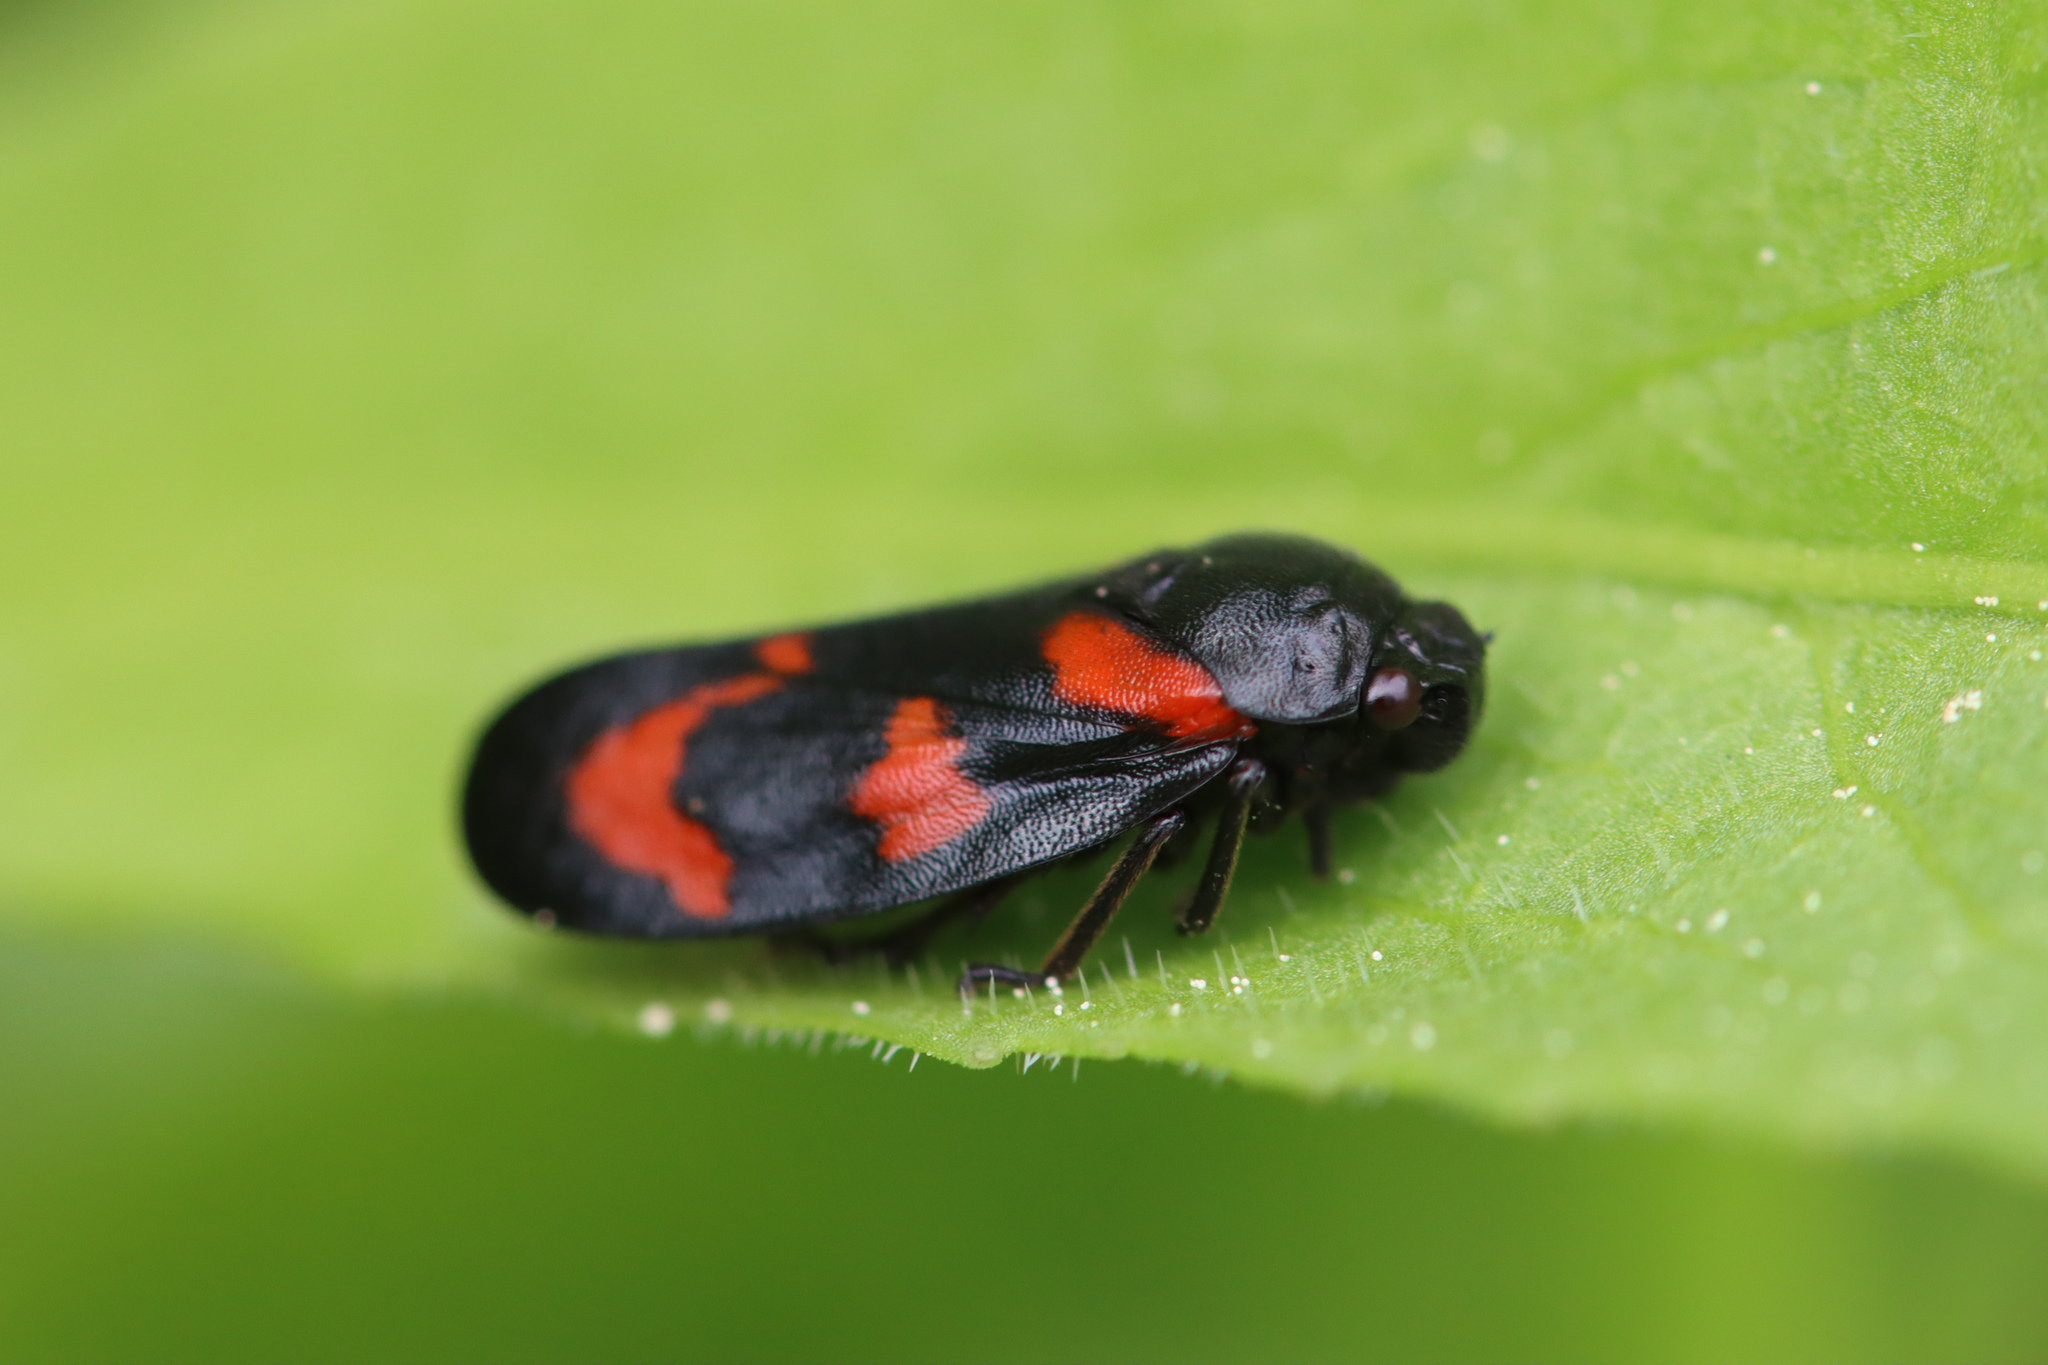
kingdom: Animalia
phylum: Arthropoda
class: Insecta
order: Hemiptera
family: Cercopidae
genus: Cercopis
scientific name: Cercopis vulnerata
